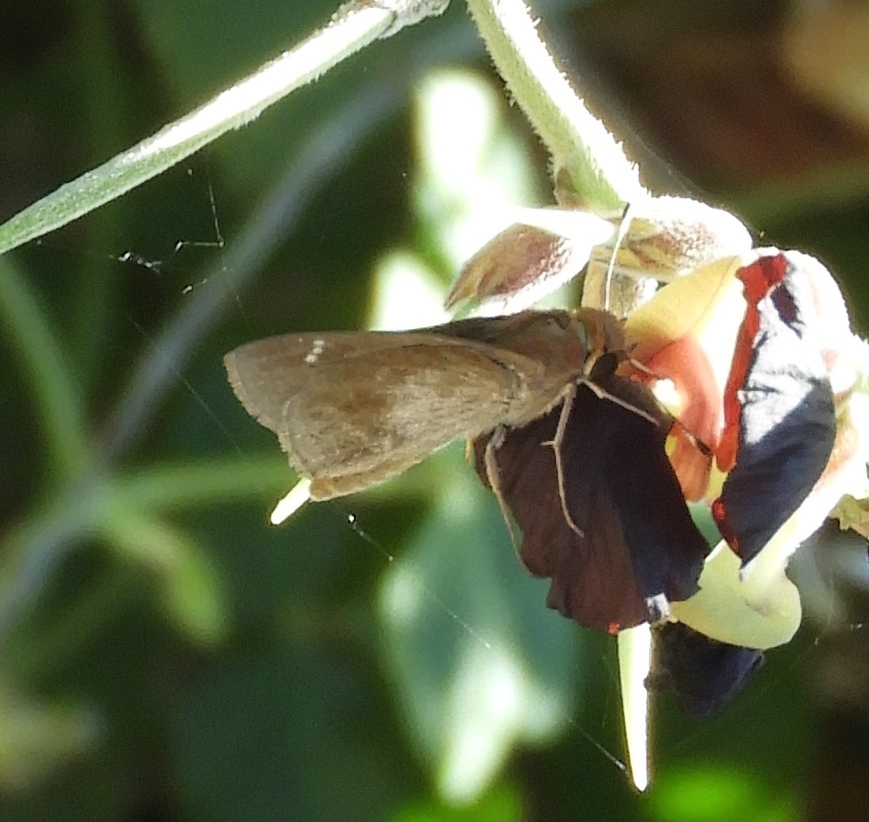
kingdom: Animalia
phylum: Arthropoda
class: Insecta
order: Lepidoptera
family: Hesperiidae
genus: Lerema
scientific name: Lerema accius
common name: Clouded skipper
